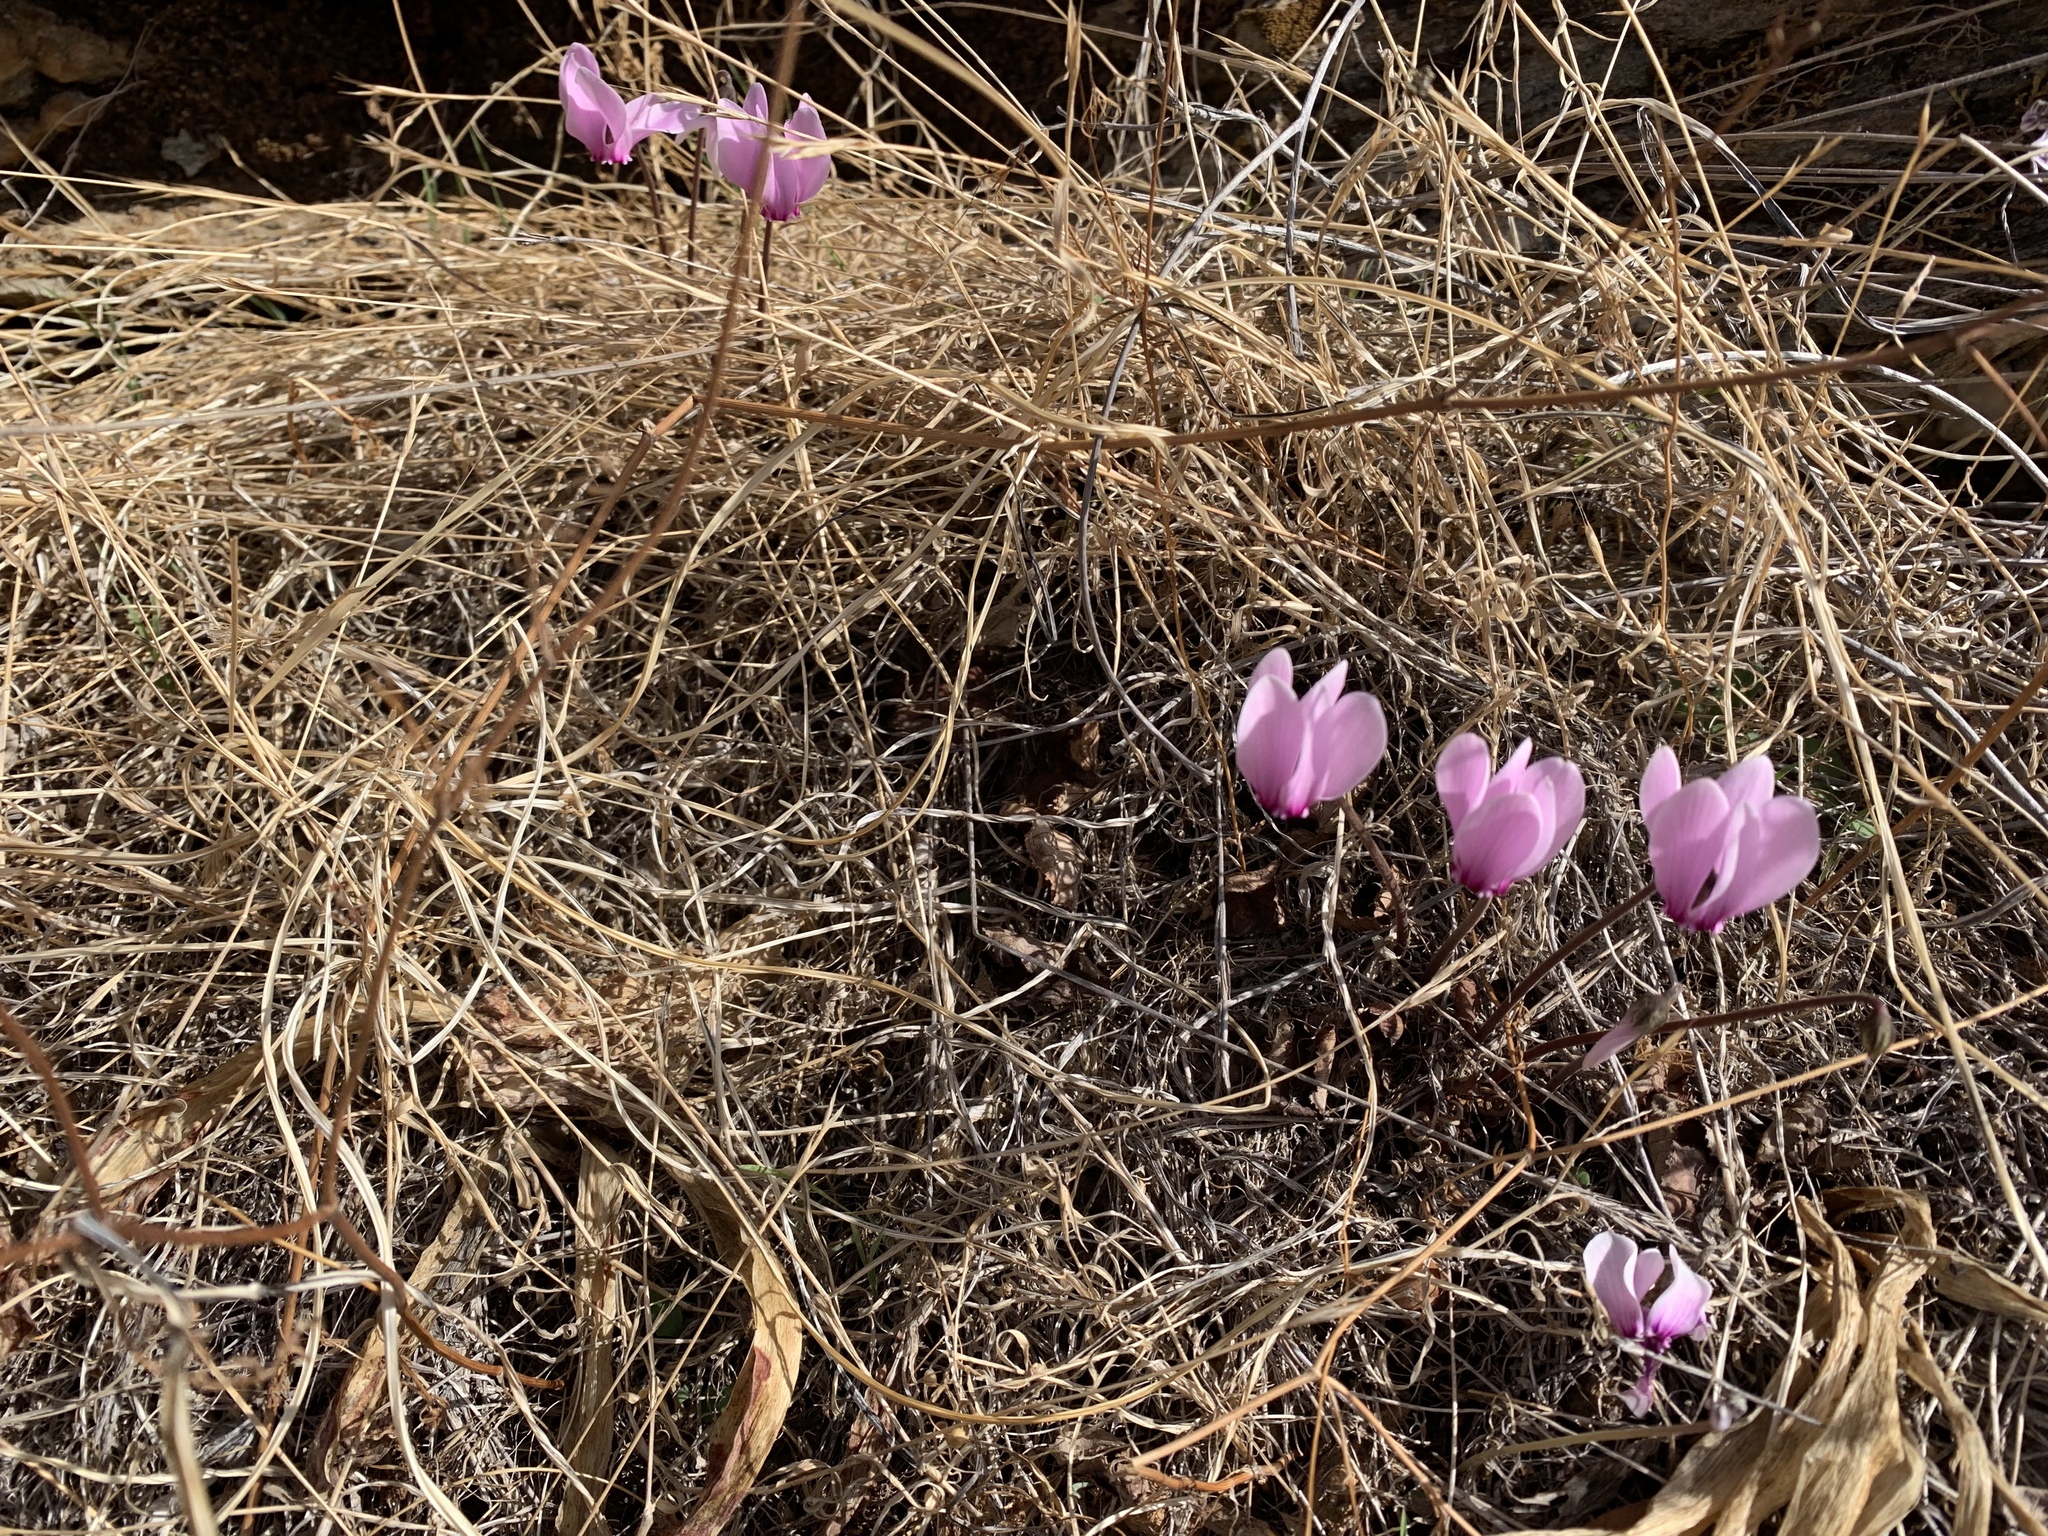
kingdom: Plantae
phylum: Tracheophyta
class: Magnoliopsida
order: Ericales
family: Primulaceae
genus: Cyclamen
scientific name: Cyclamen graecum
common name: Greek cyclamen
